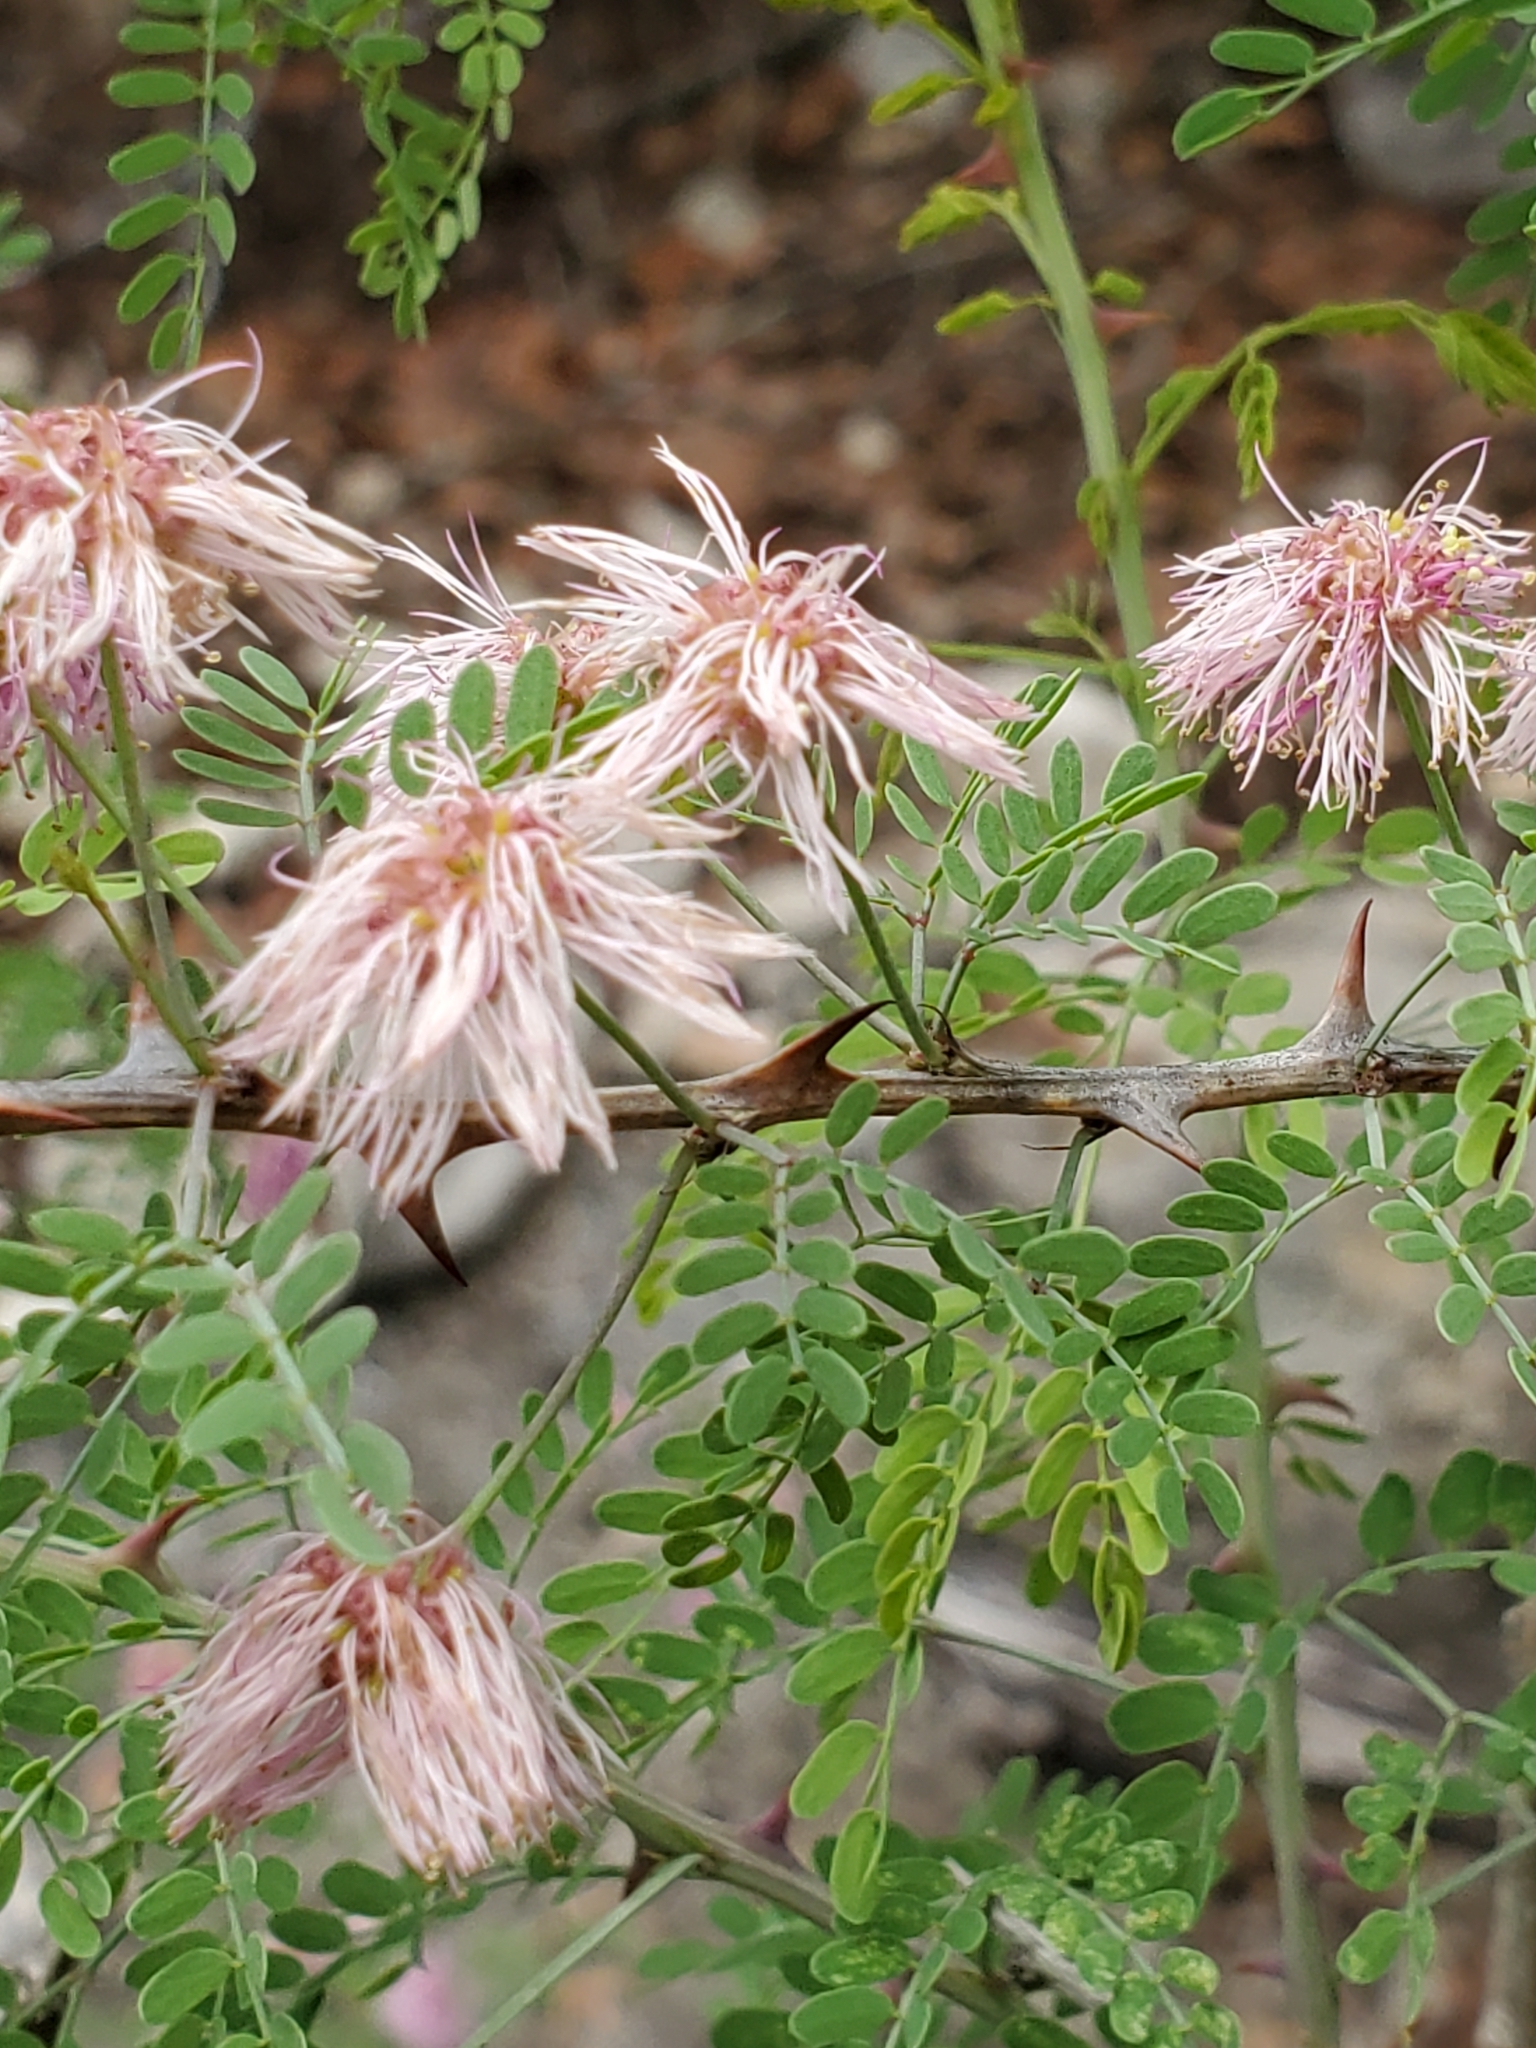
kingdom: Plantae
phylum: Tracheophyta
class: Magnoliopsida
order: Fabales
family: Fabaceae
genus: Mimosa
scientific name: Mimosa borealis
